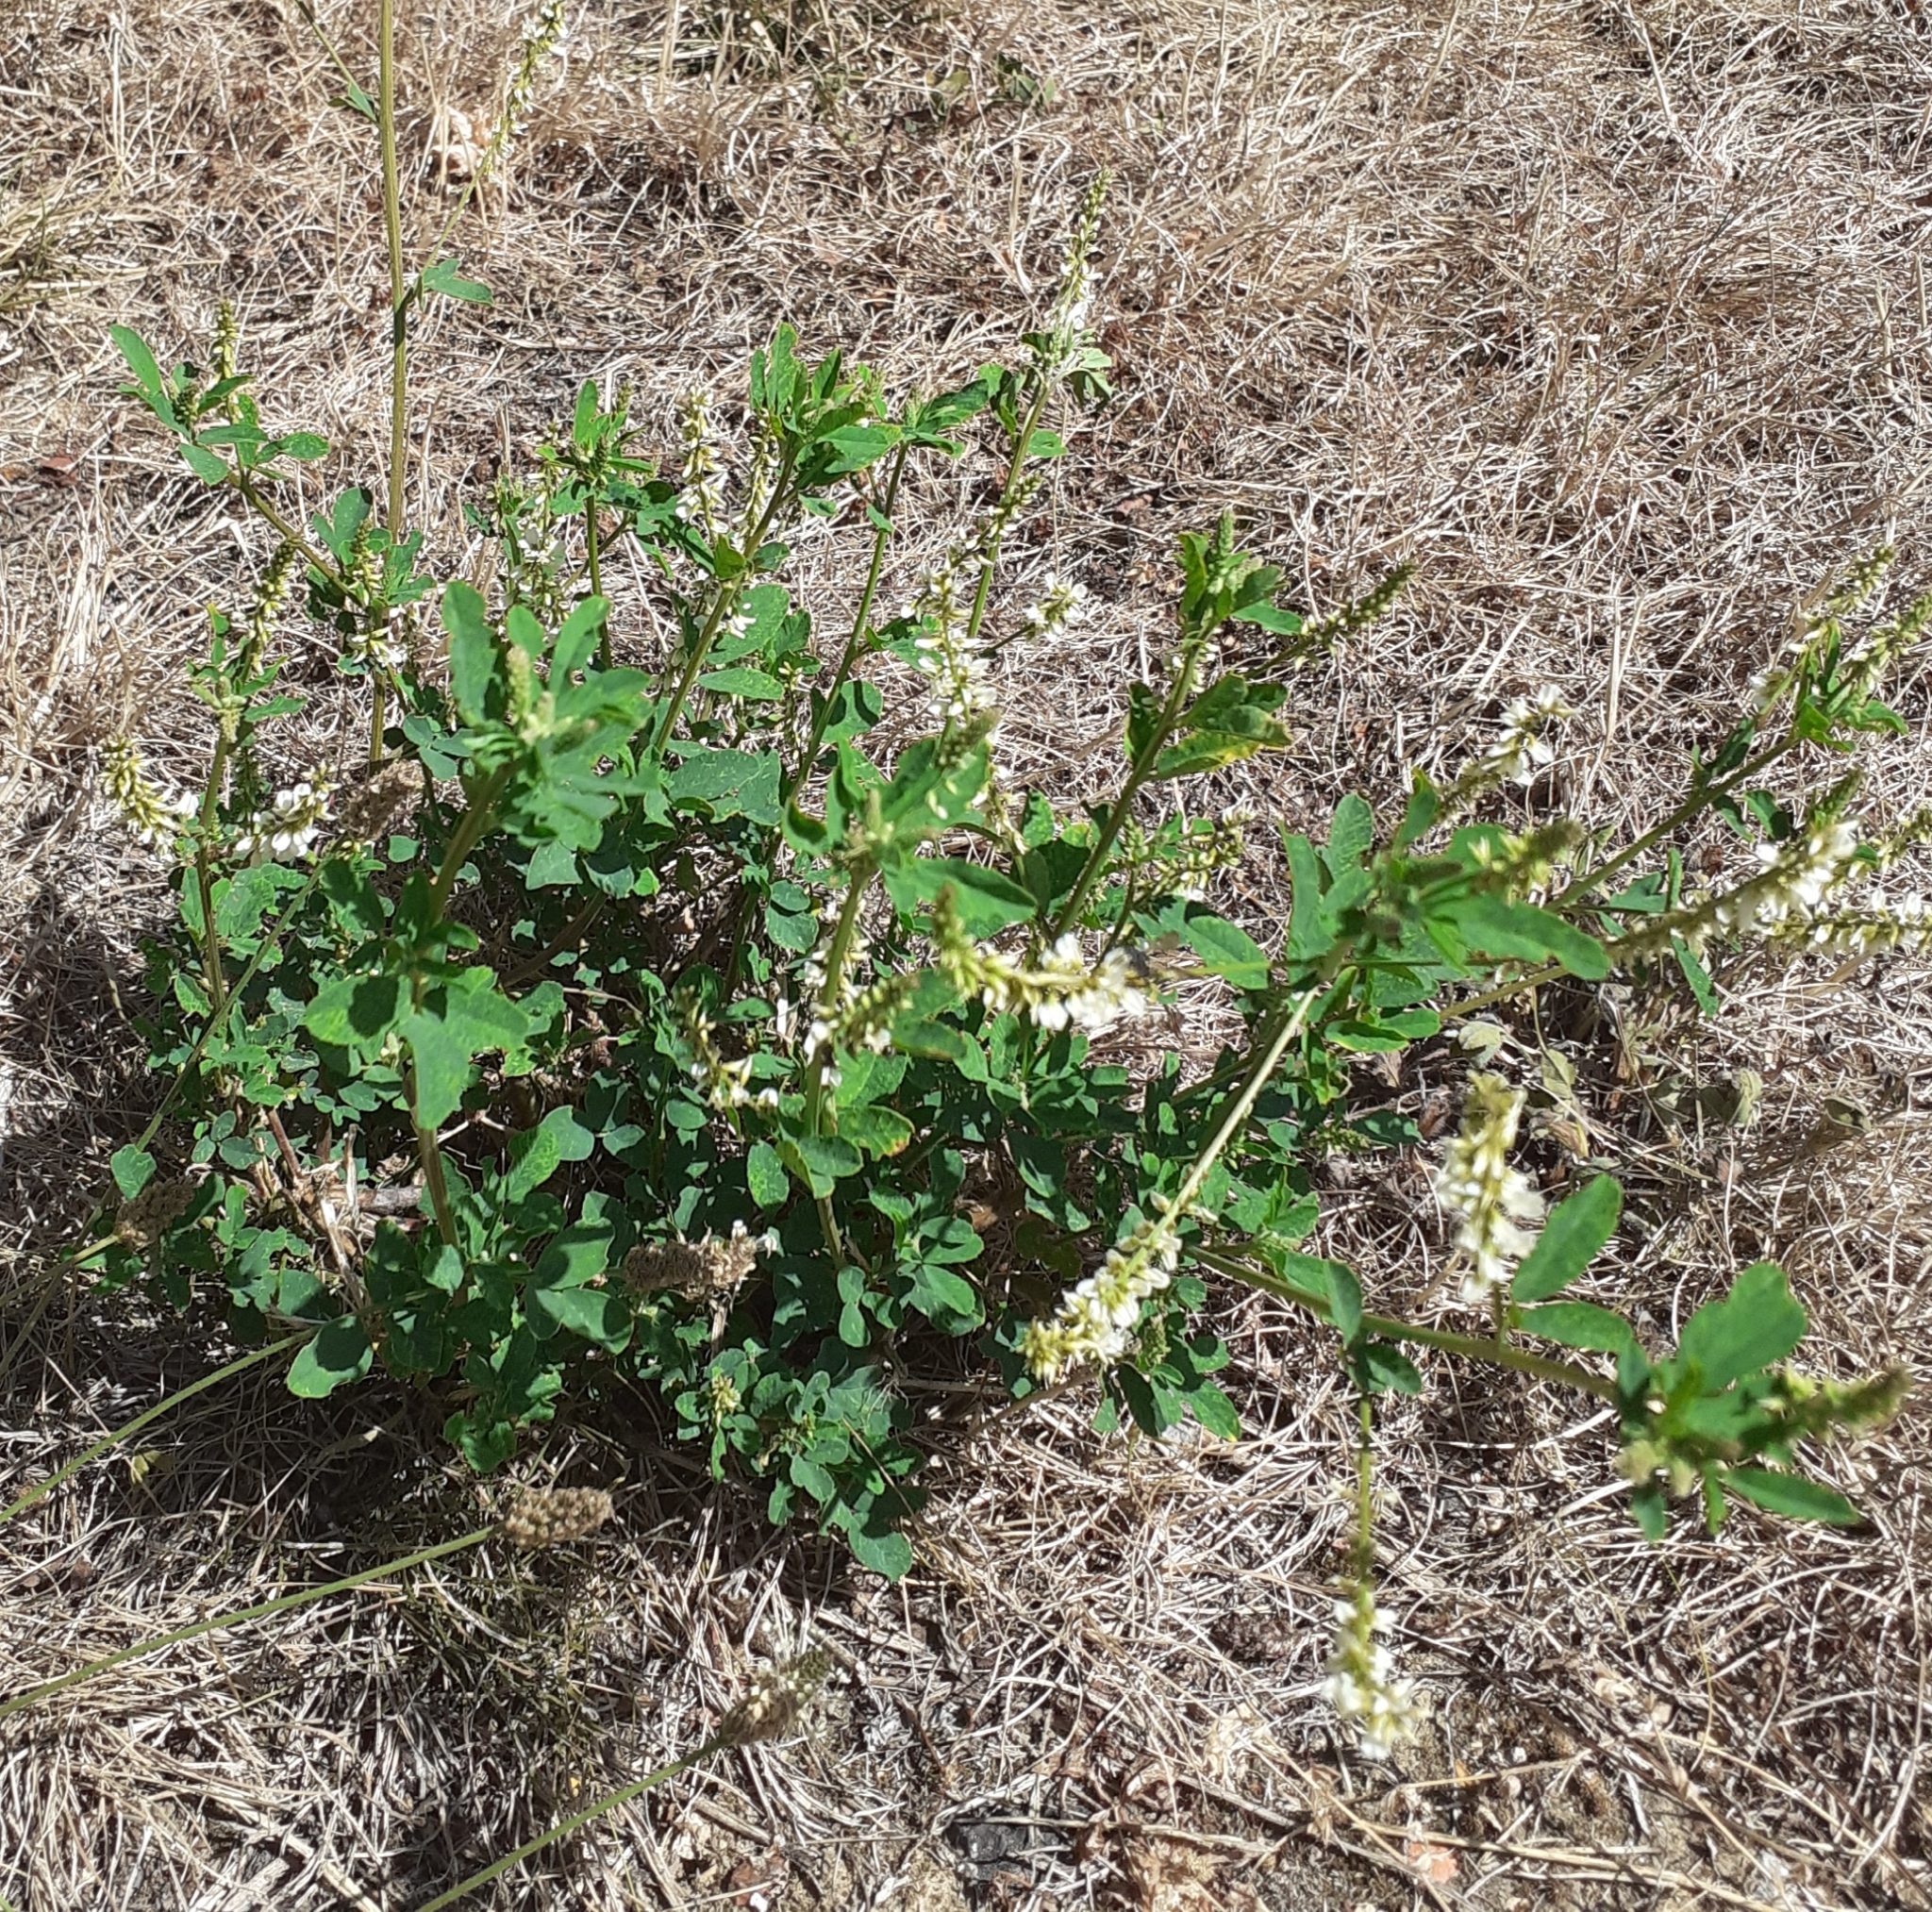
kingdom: Plantae
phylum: Tracheophyta
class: Magnoliopsida
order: Fabales
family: Fabaceae
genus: Melilotus
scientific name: Melilotus albus
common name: White melilot
